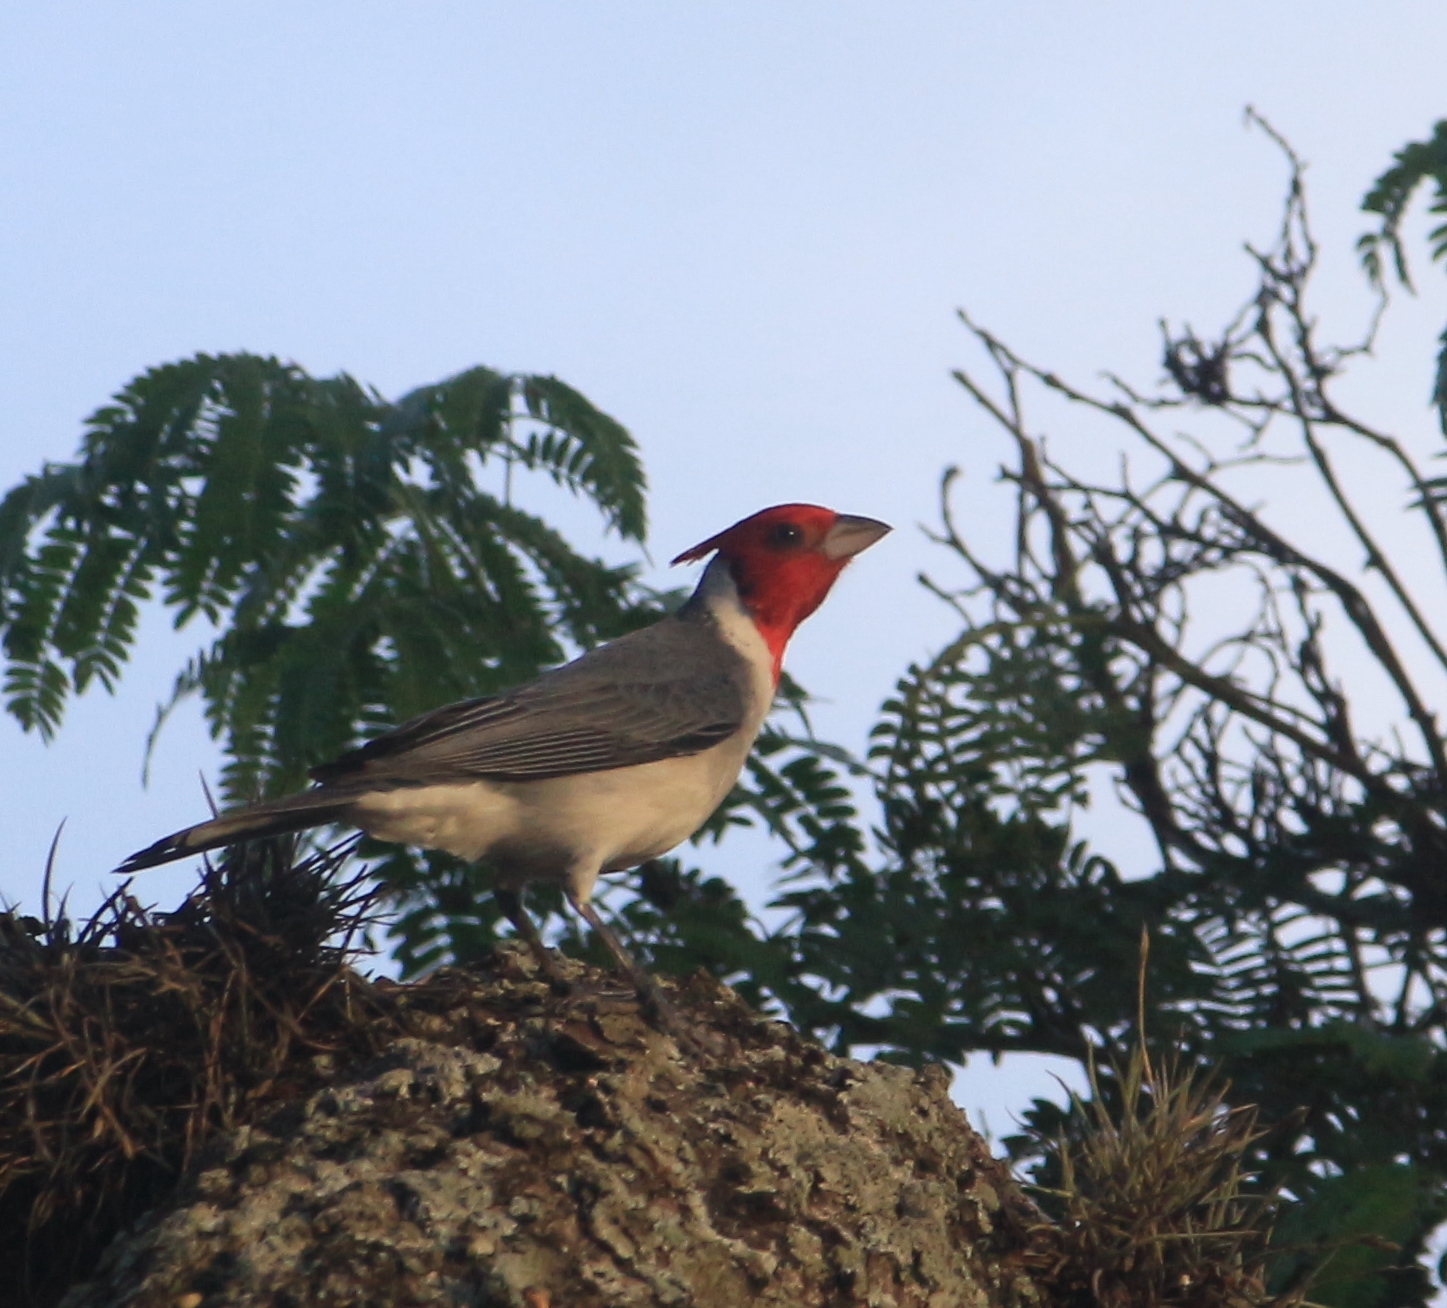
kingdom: Animalia
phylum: Chordata
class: Aves
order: Passeriformes
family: Thraupidae
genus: Paroaria
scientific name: Paroaria coronata
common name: Red-crested cardinal
